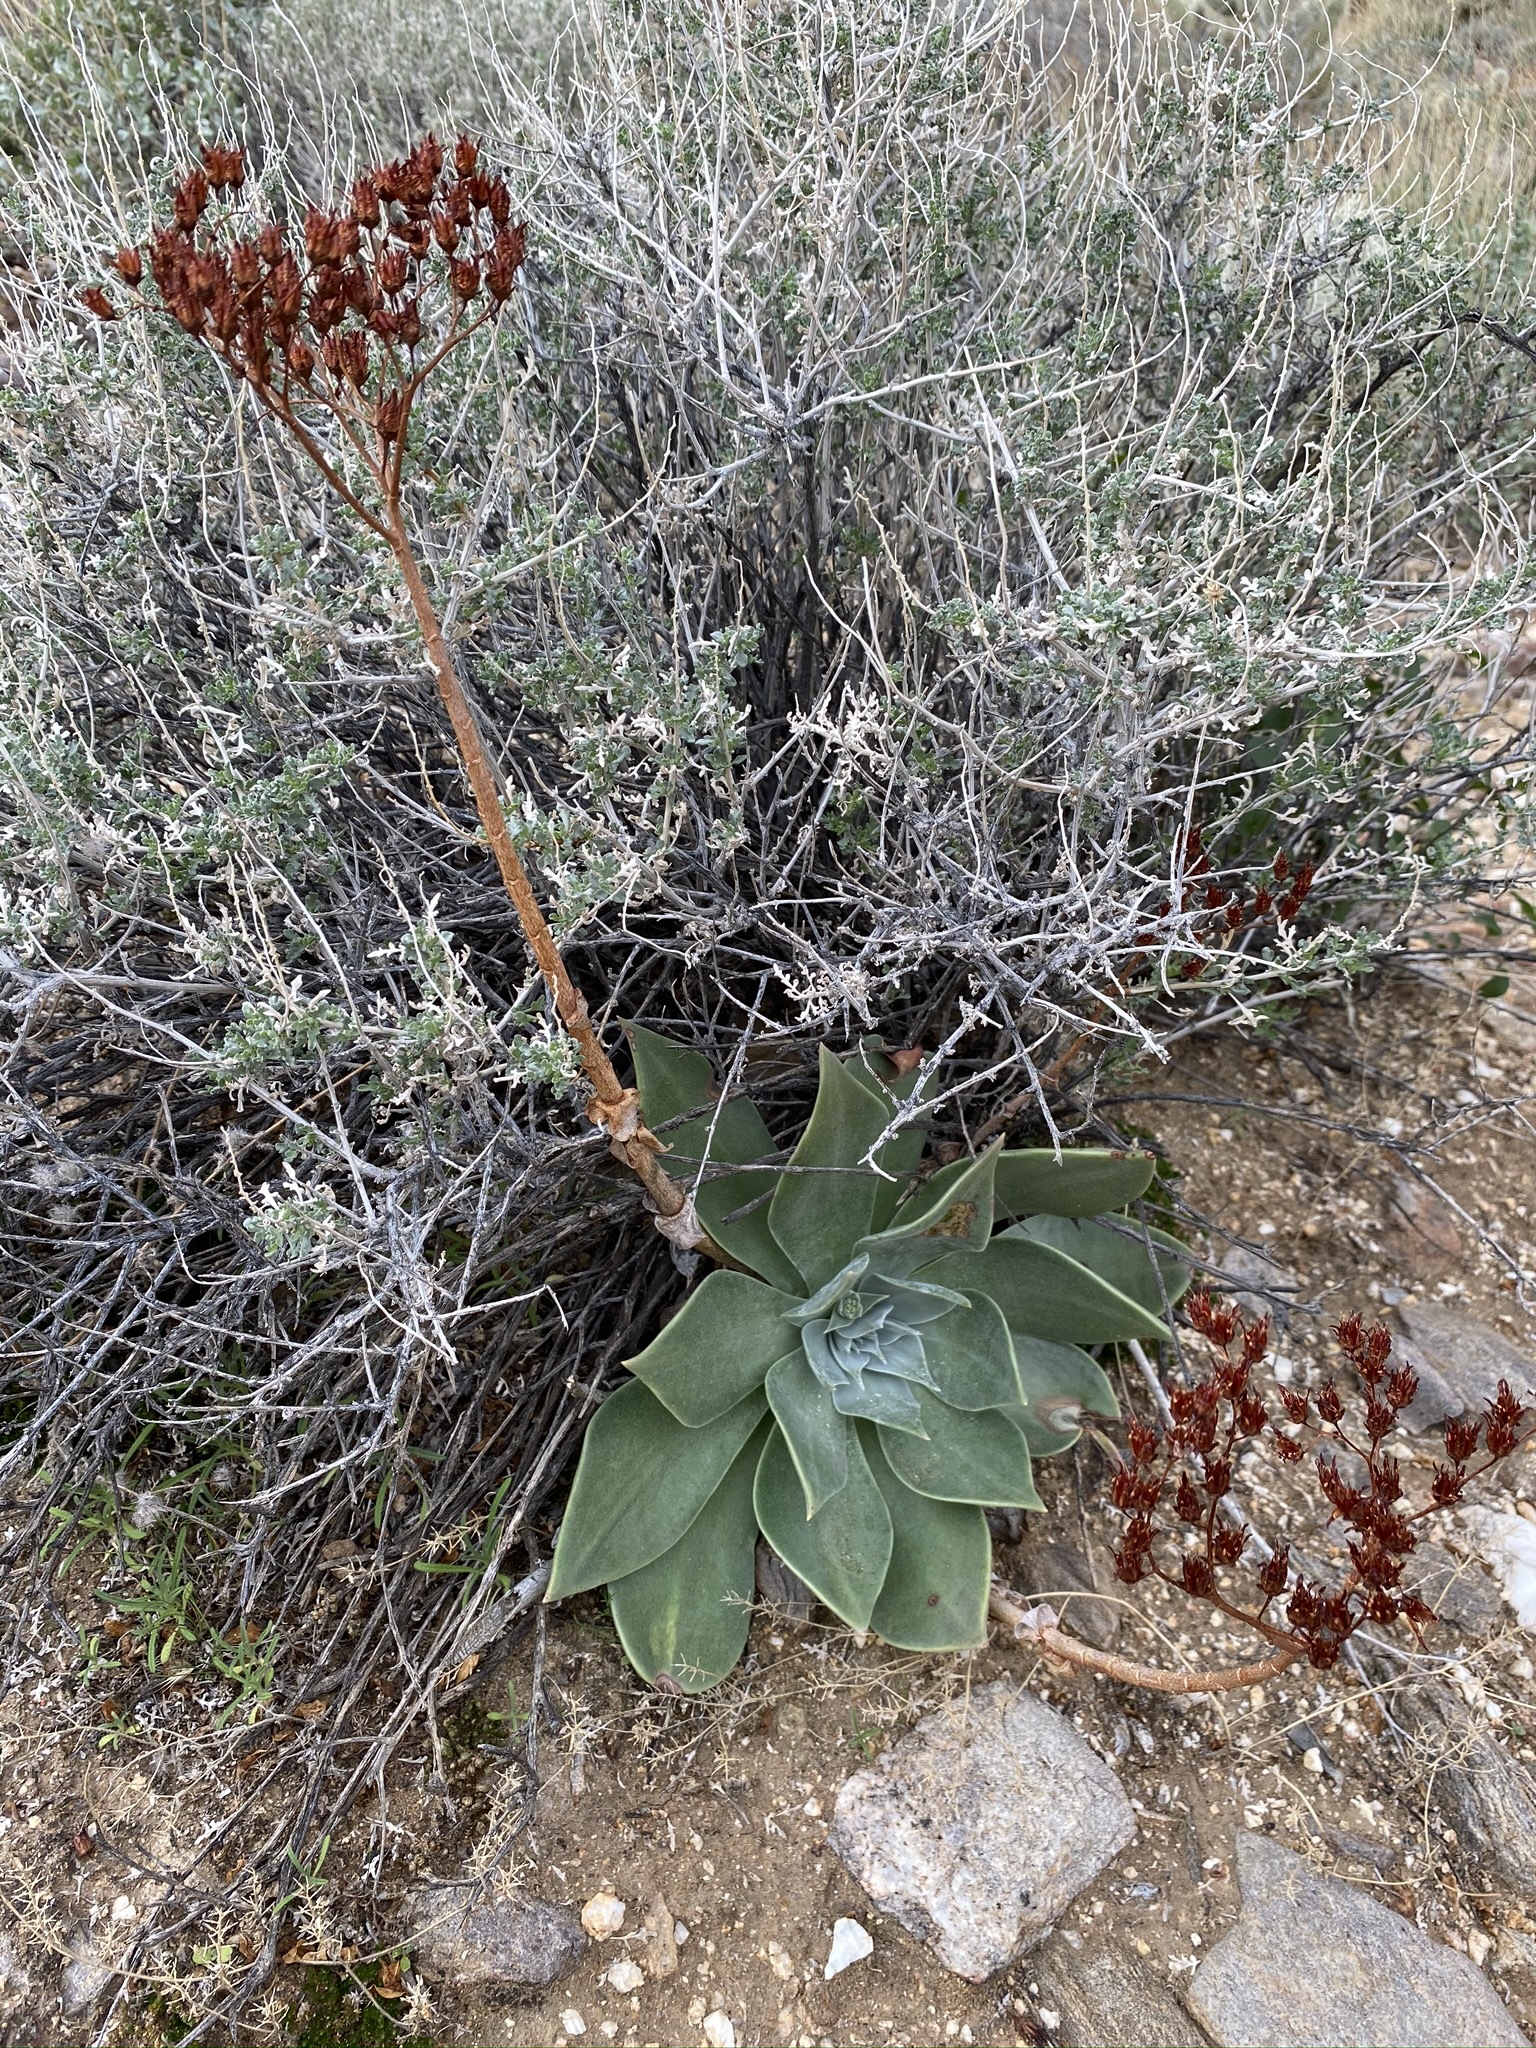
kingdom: Plantae
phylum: Tracheophyta
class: Magnoliopsida
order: Saxifragales
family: Crassulaceae
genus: Dudleya
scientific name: Dudleya arizonica
